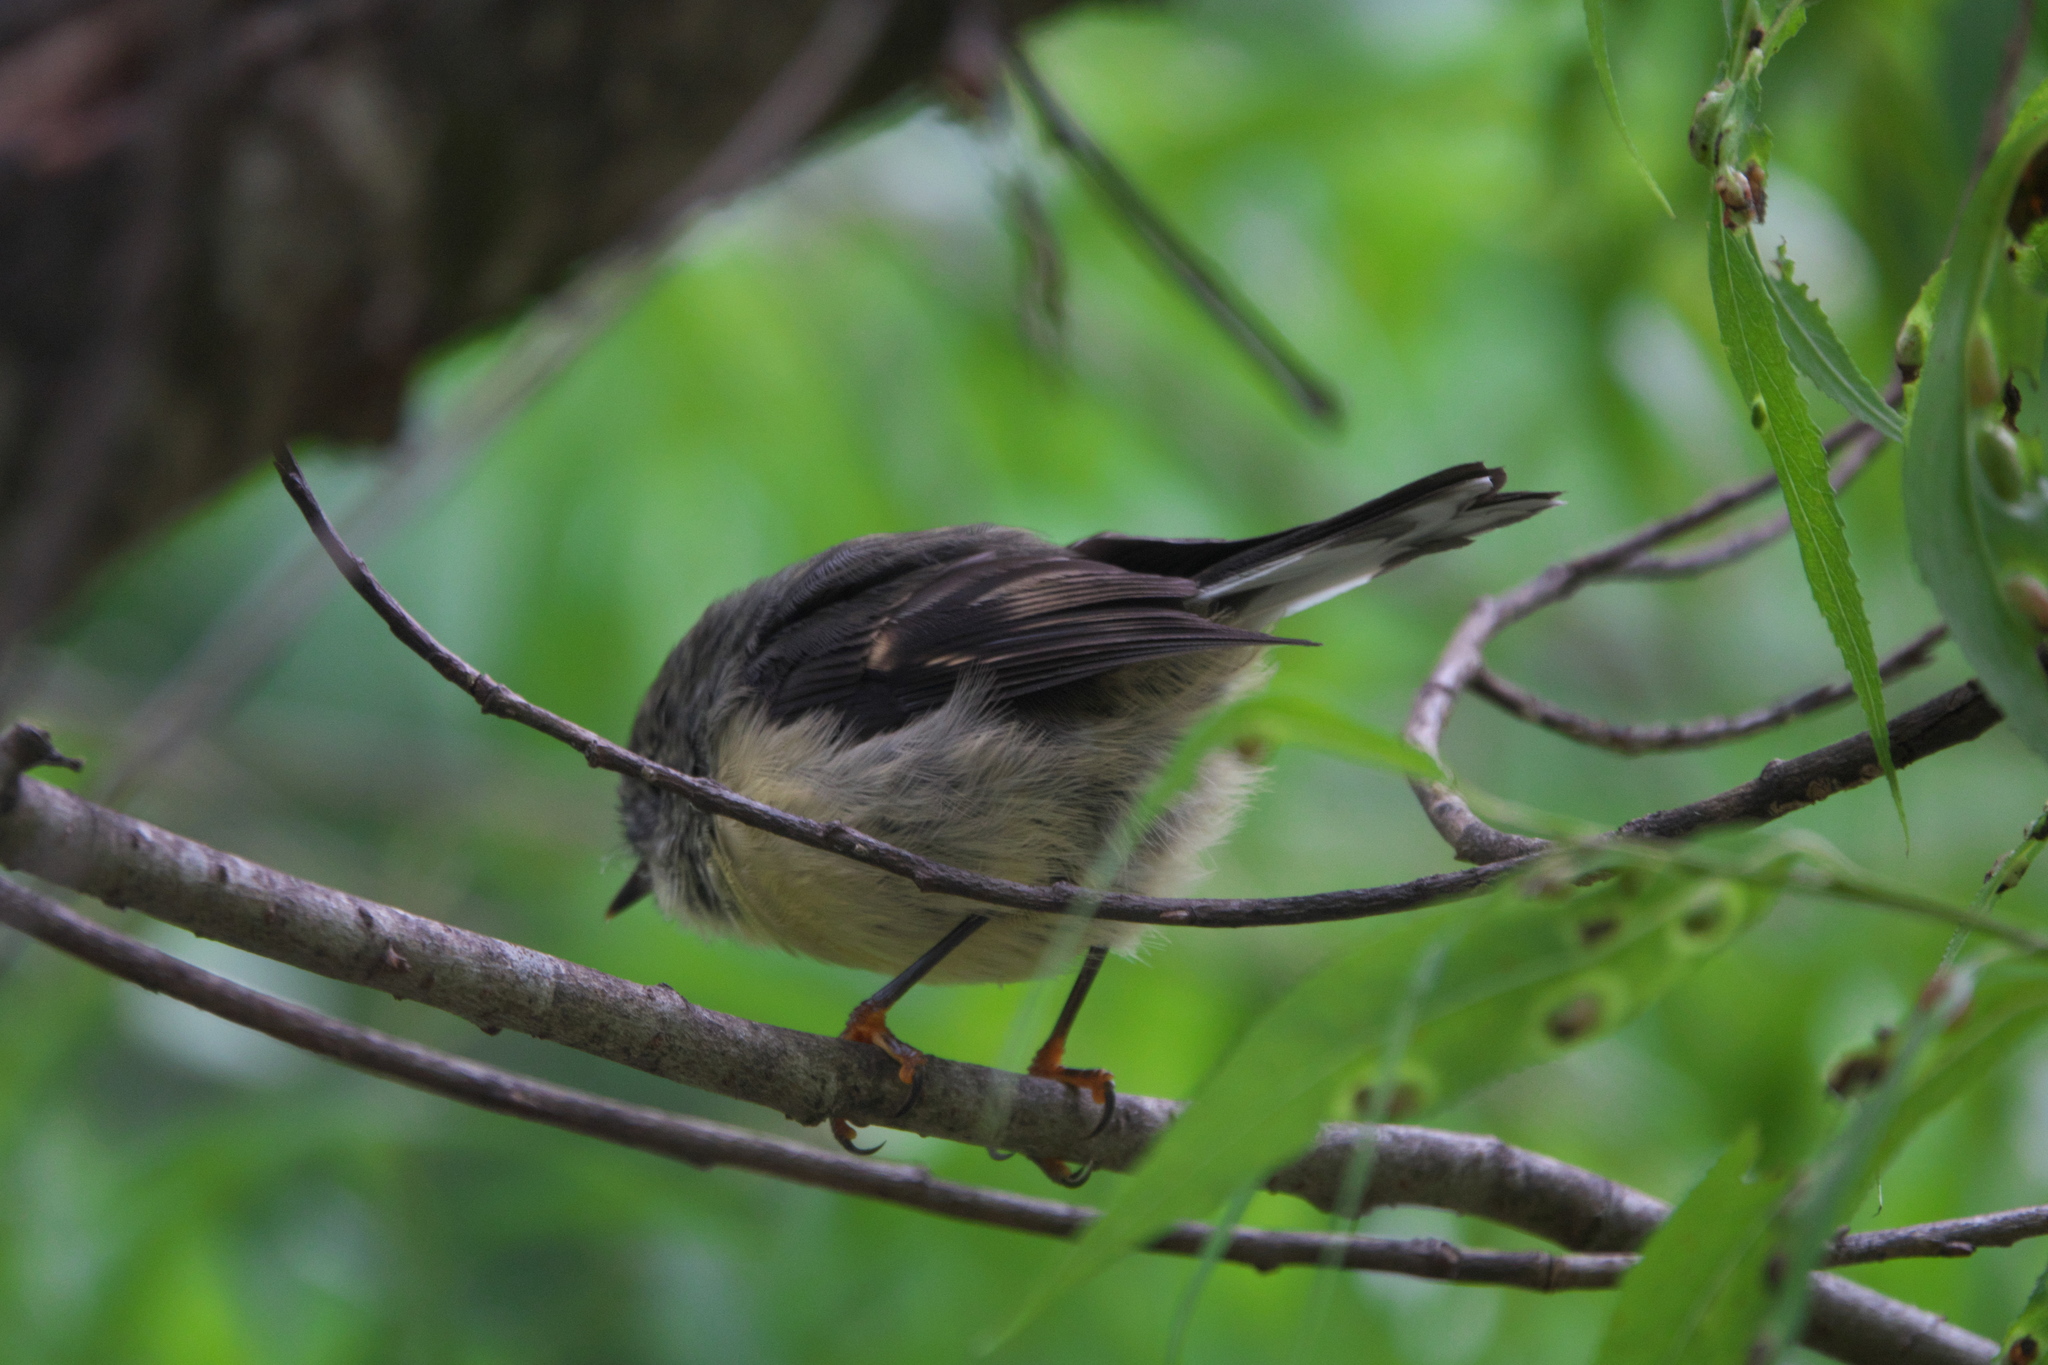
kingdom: Animalia
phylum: Chordata
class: Aves
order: Passeriformes
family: Petroicidae
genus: Petroica
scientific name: Petroica macrocephala
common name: Tomtit
